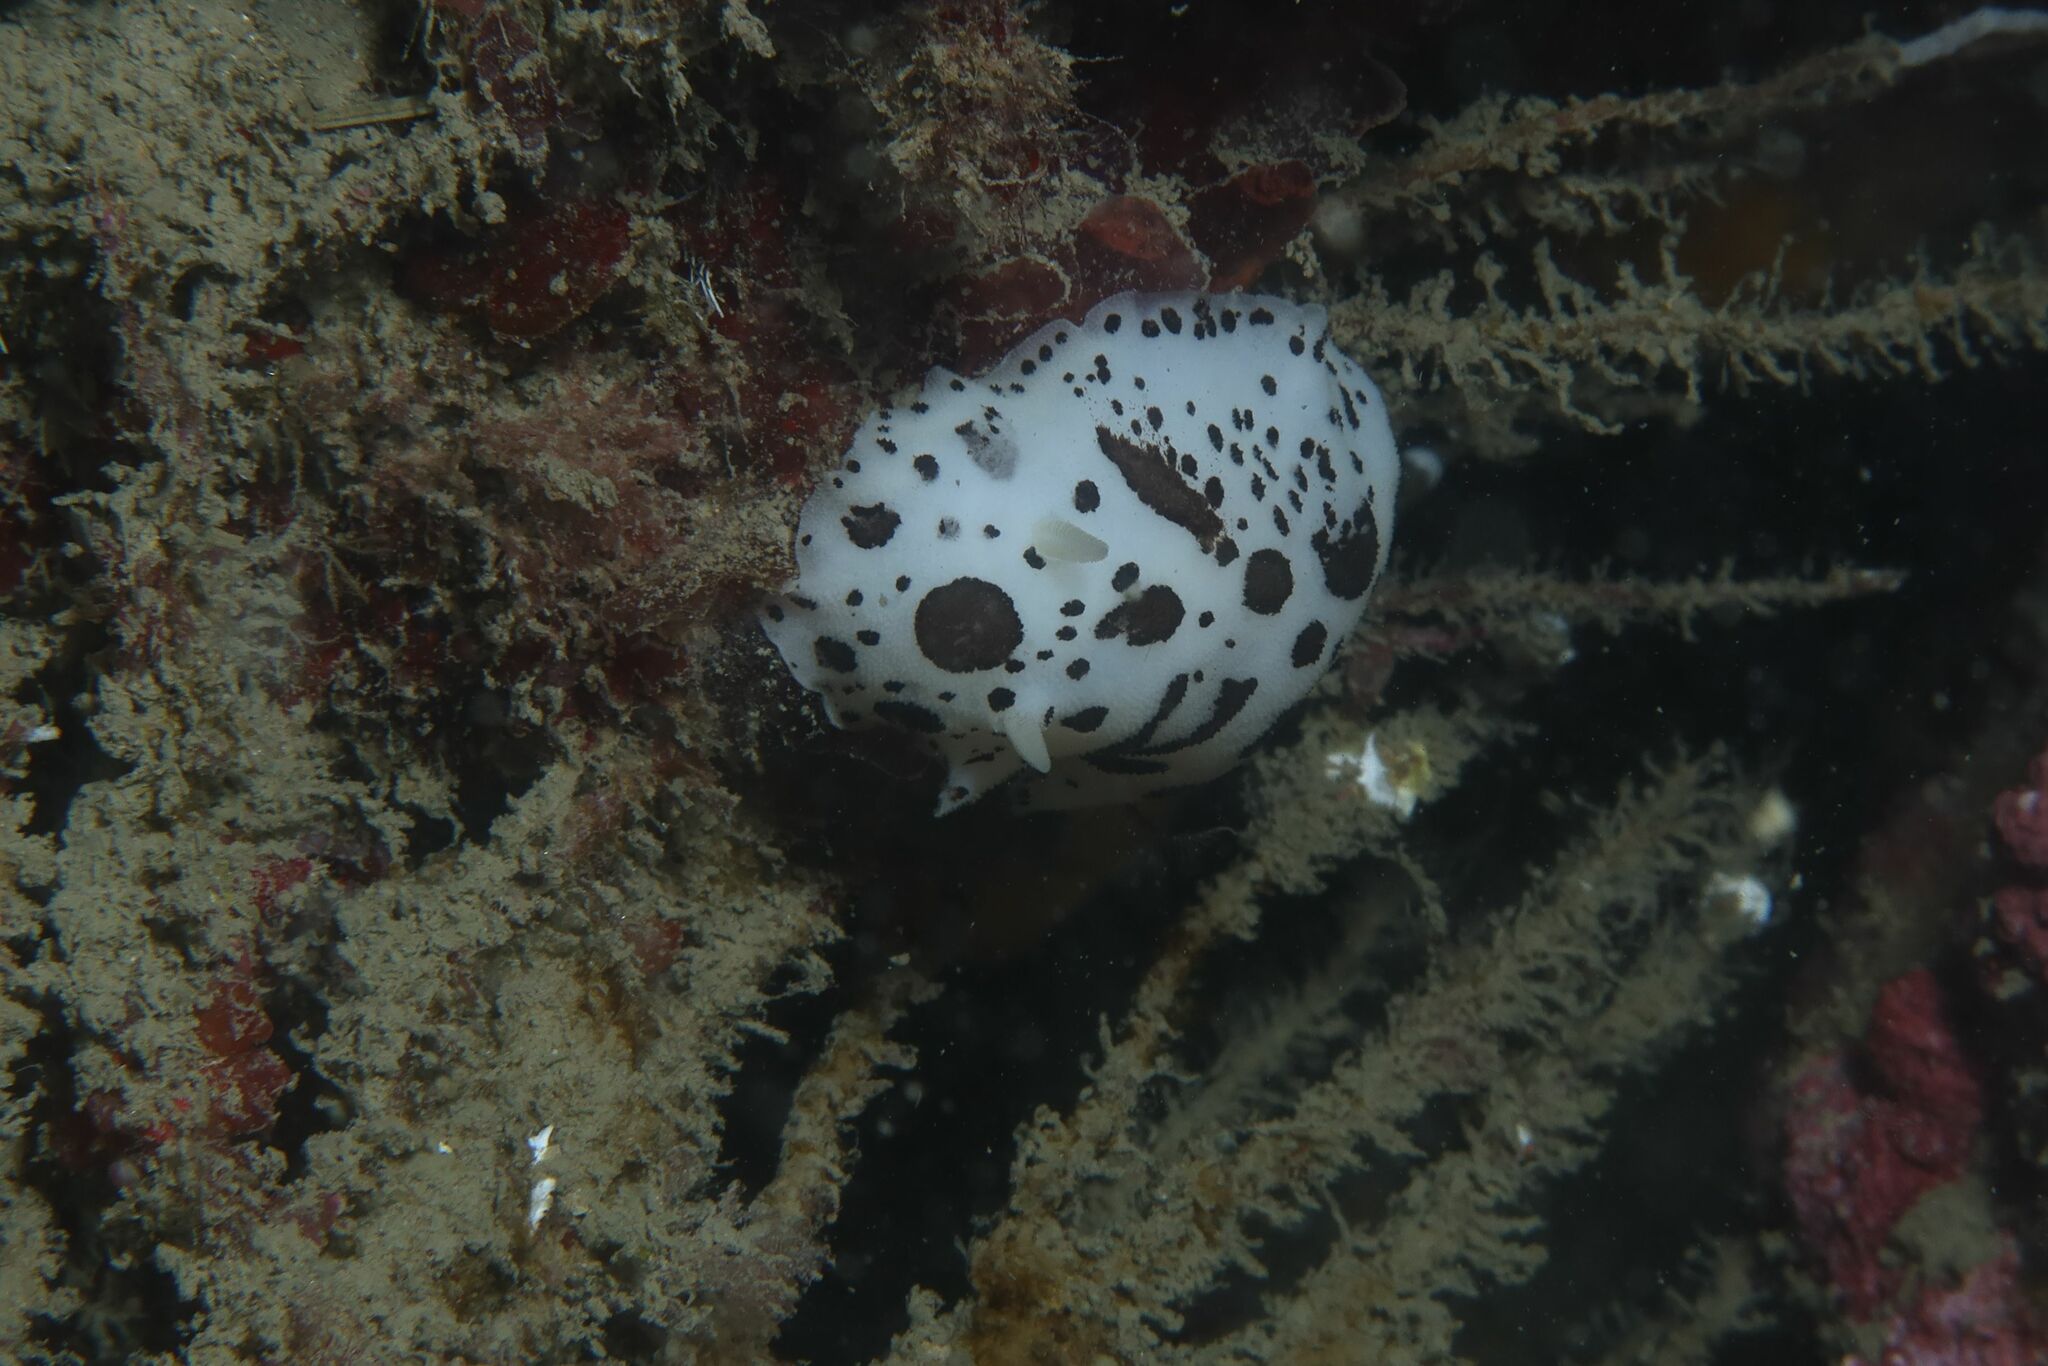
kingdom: Animalia
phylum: Mollusca
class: Gastropoda
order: Nudibranchia
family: Discodorididae
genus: Peltodoris
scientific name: Peltodoris atromaculata
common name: Swiss cow nudibranch
